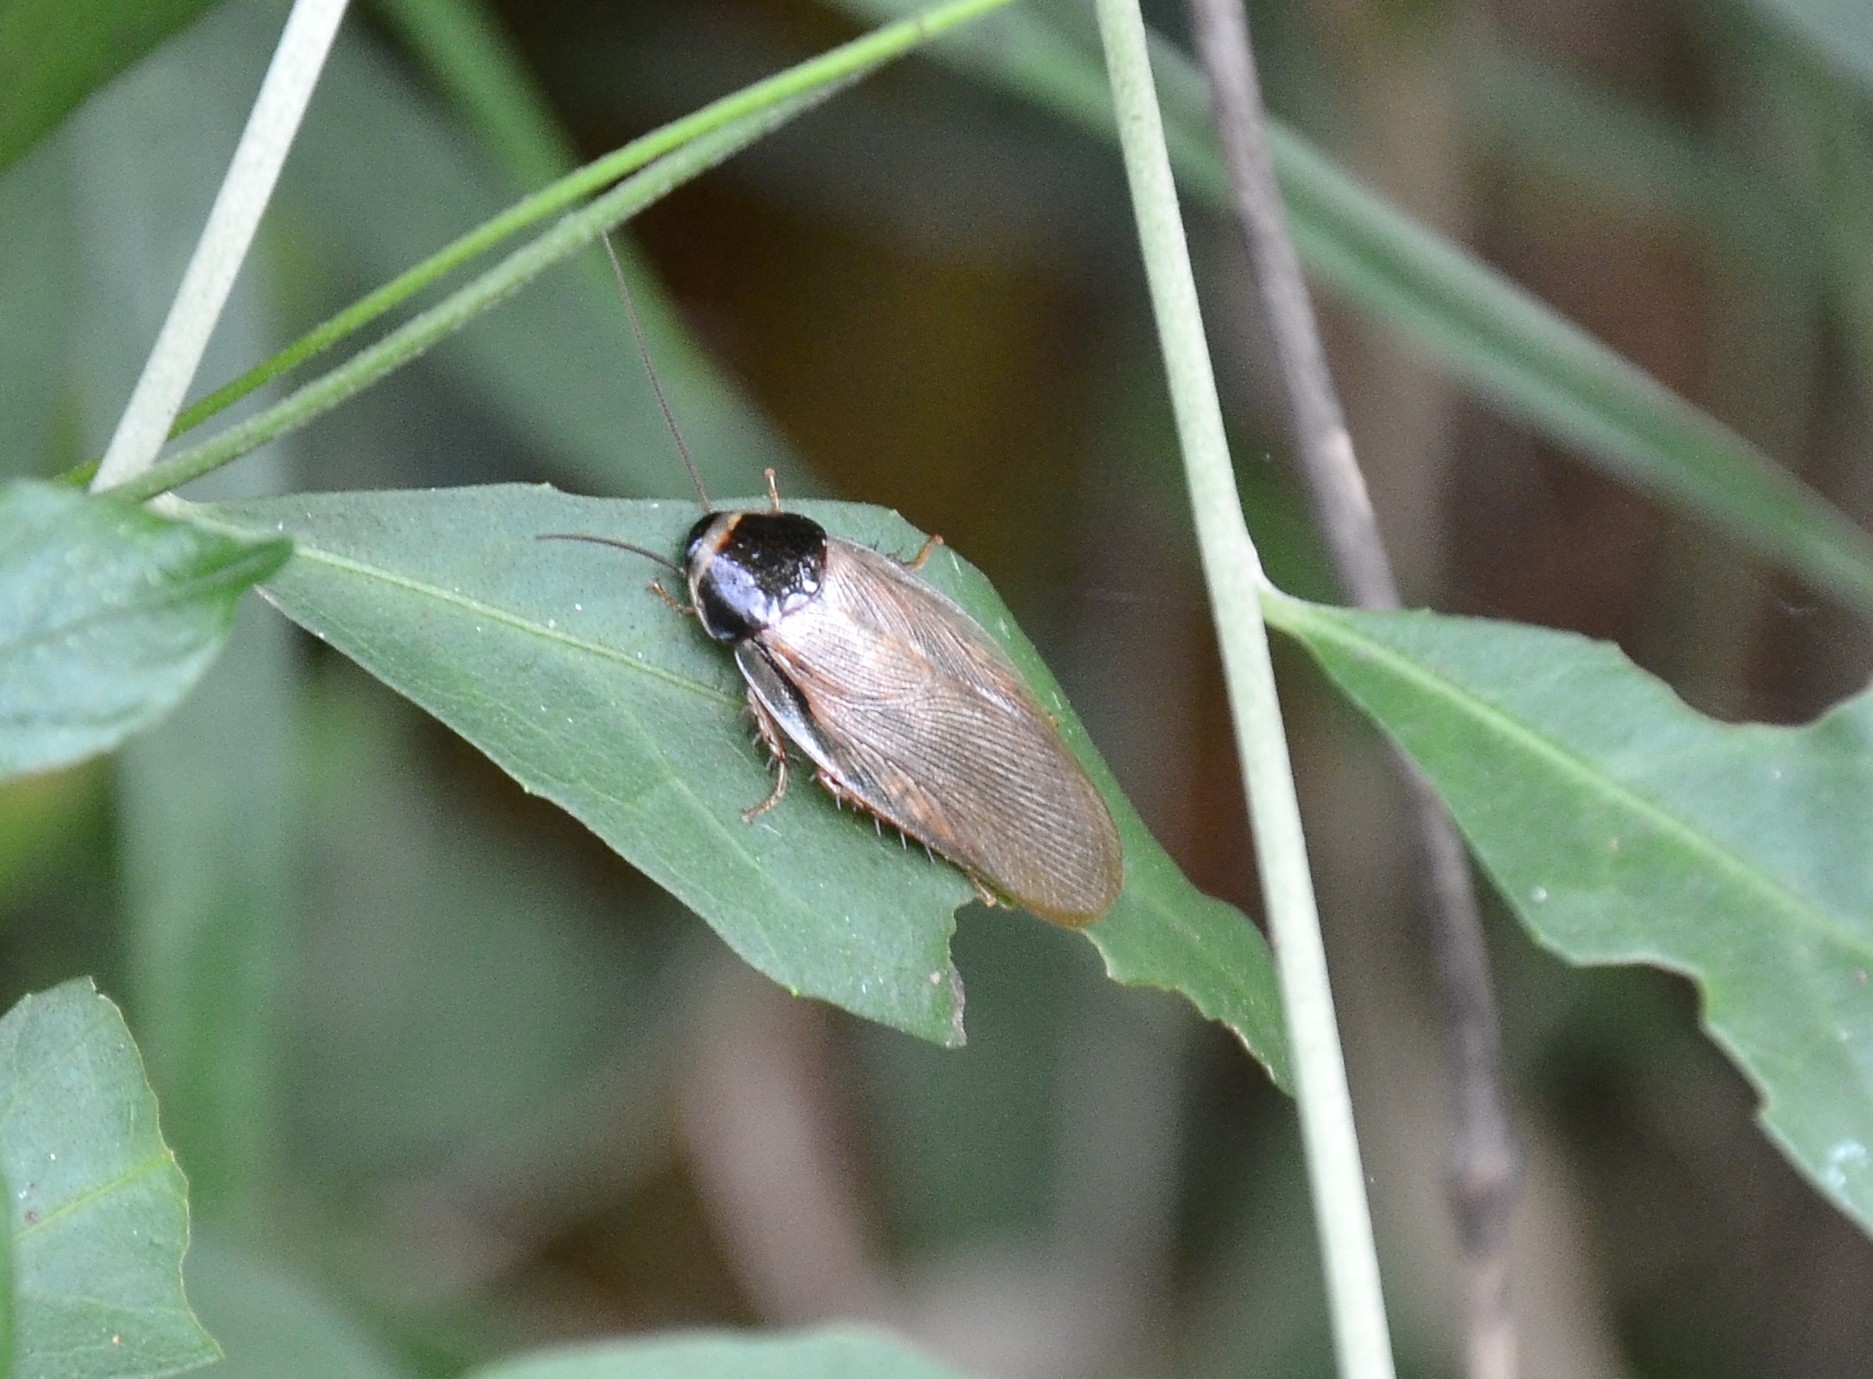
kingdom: Animalia
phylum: Arthropoda
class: Insecta
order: Blattodea
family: Blaberidae
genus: Pycnoscelus
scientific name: Pycnoscelus indicus
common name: Burrowing cockroach
